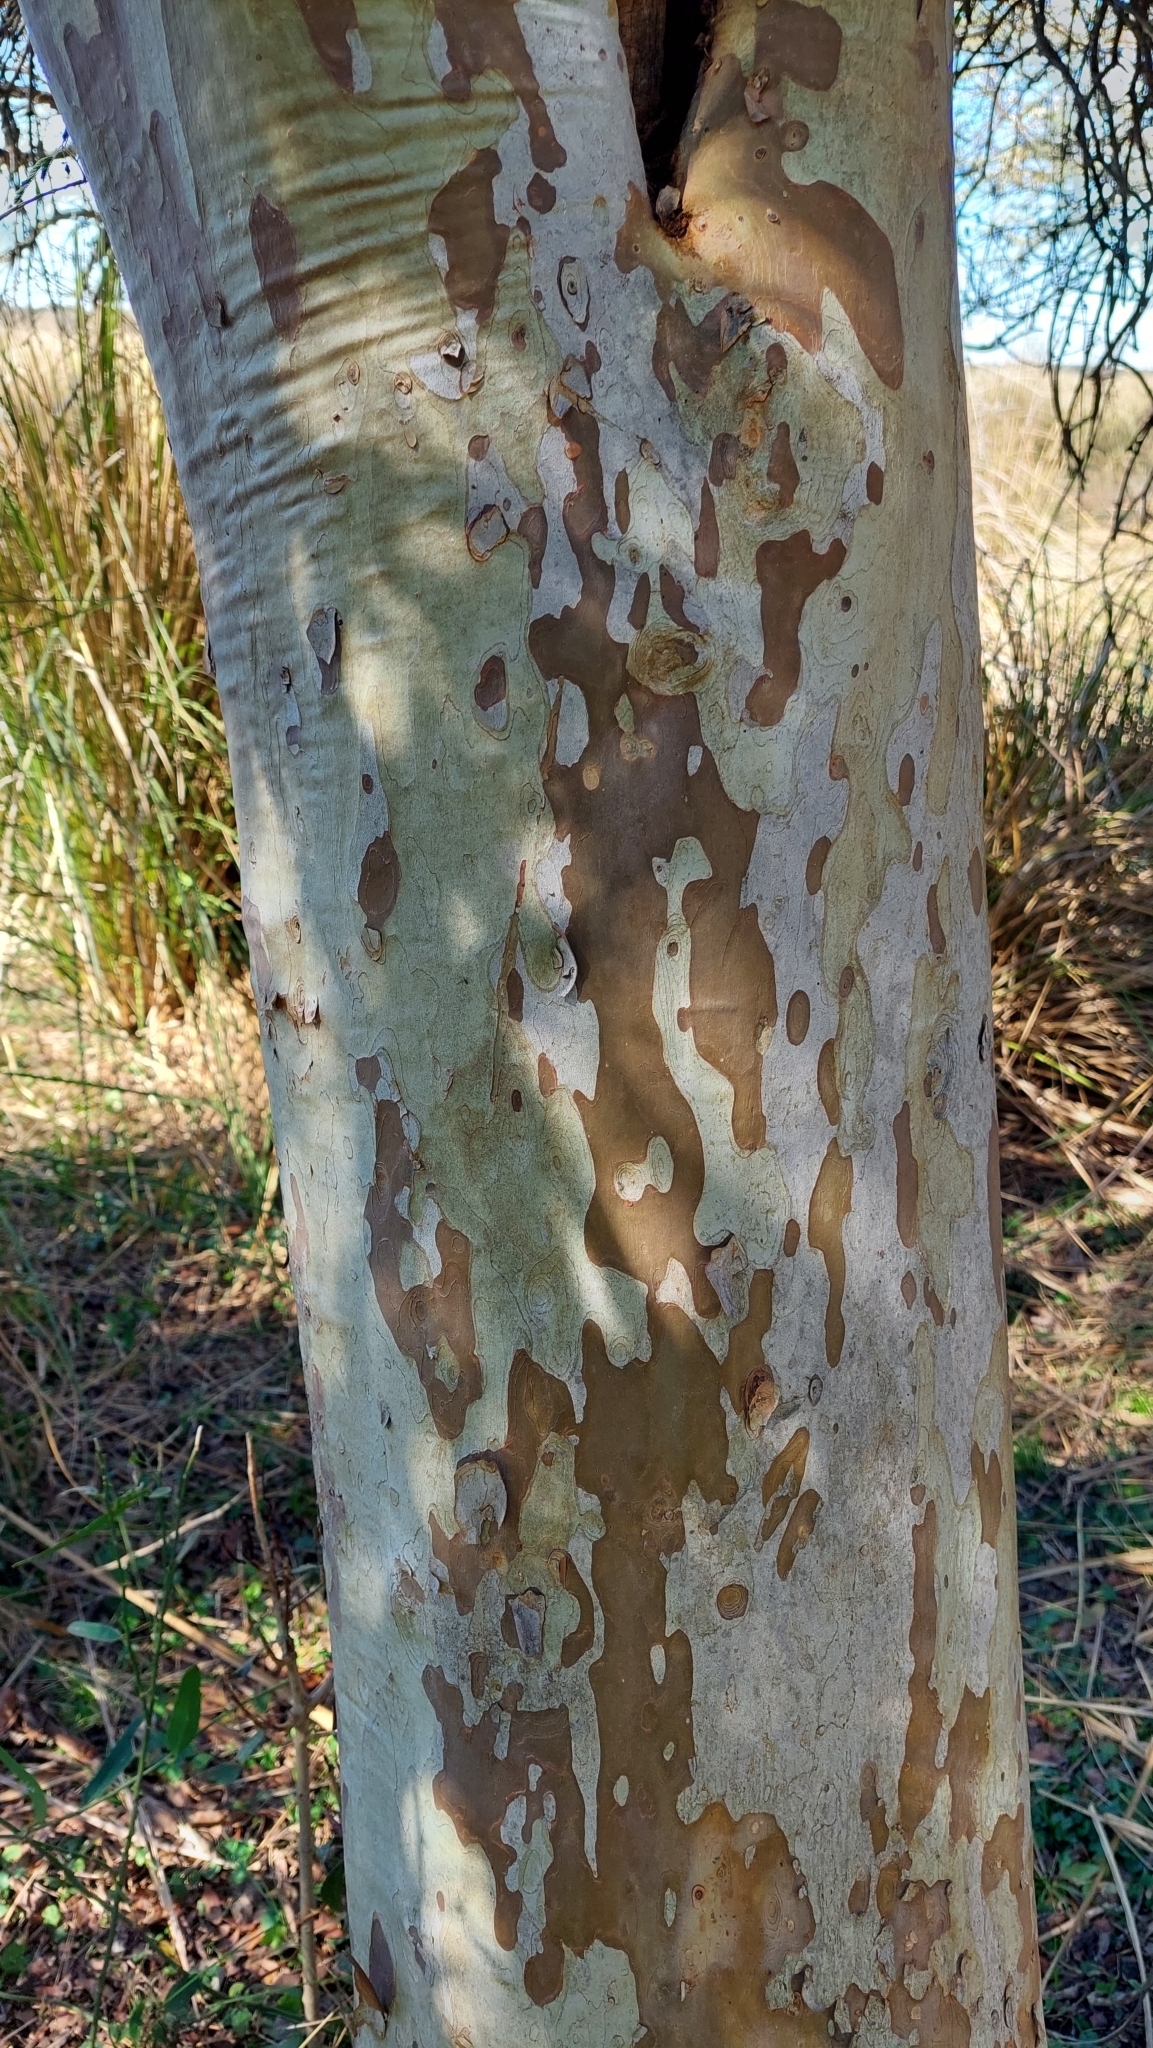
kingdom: Plantae
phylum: Tracheophyta
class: Magnoliopsida
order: Myrtales
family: Myrtaceae
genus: Myrcianthes
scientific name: Myrcianthes cisplatensis
